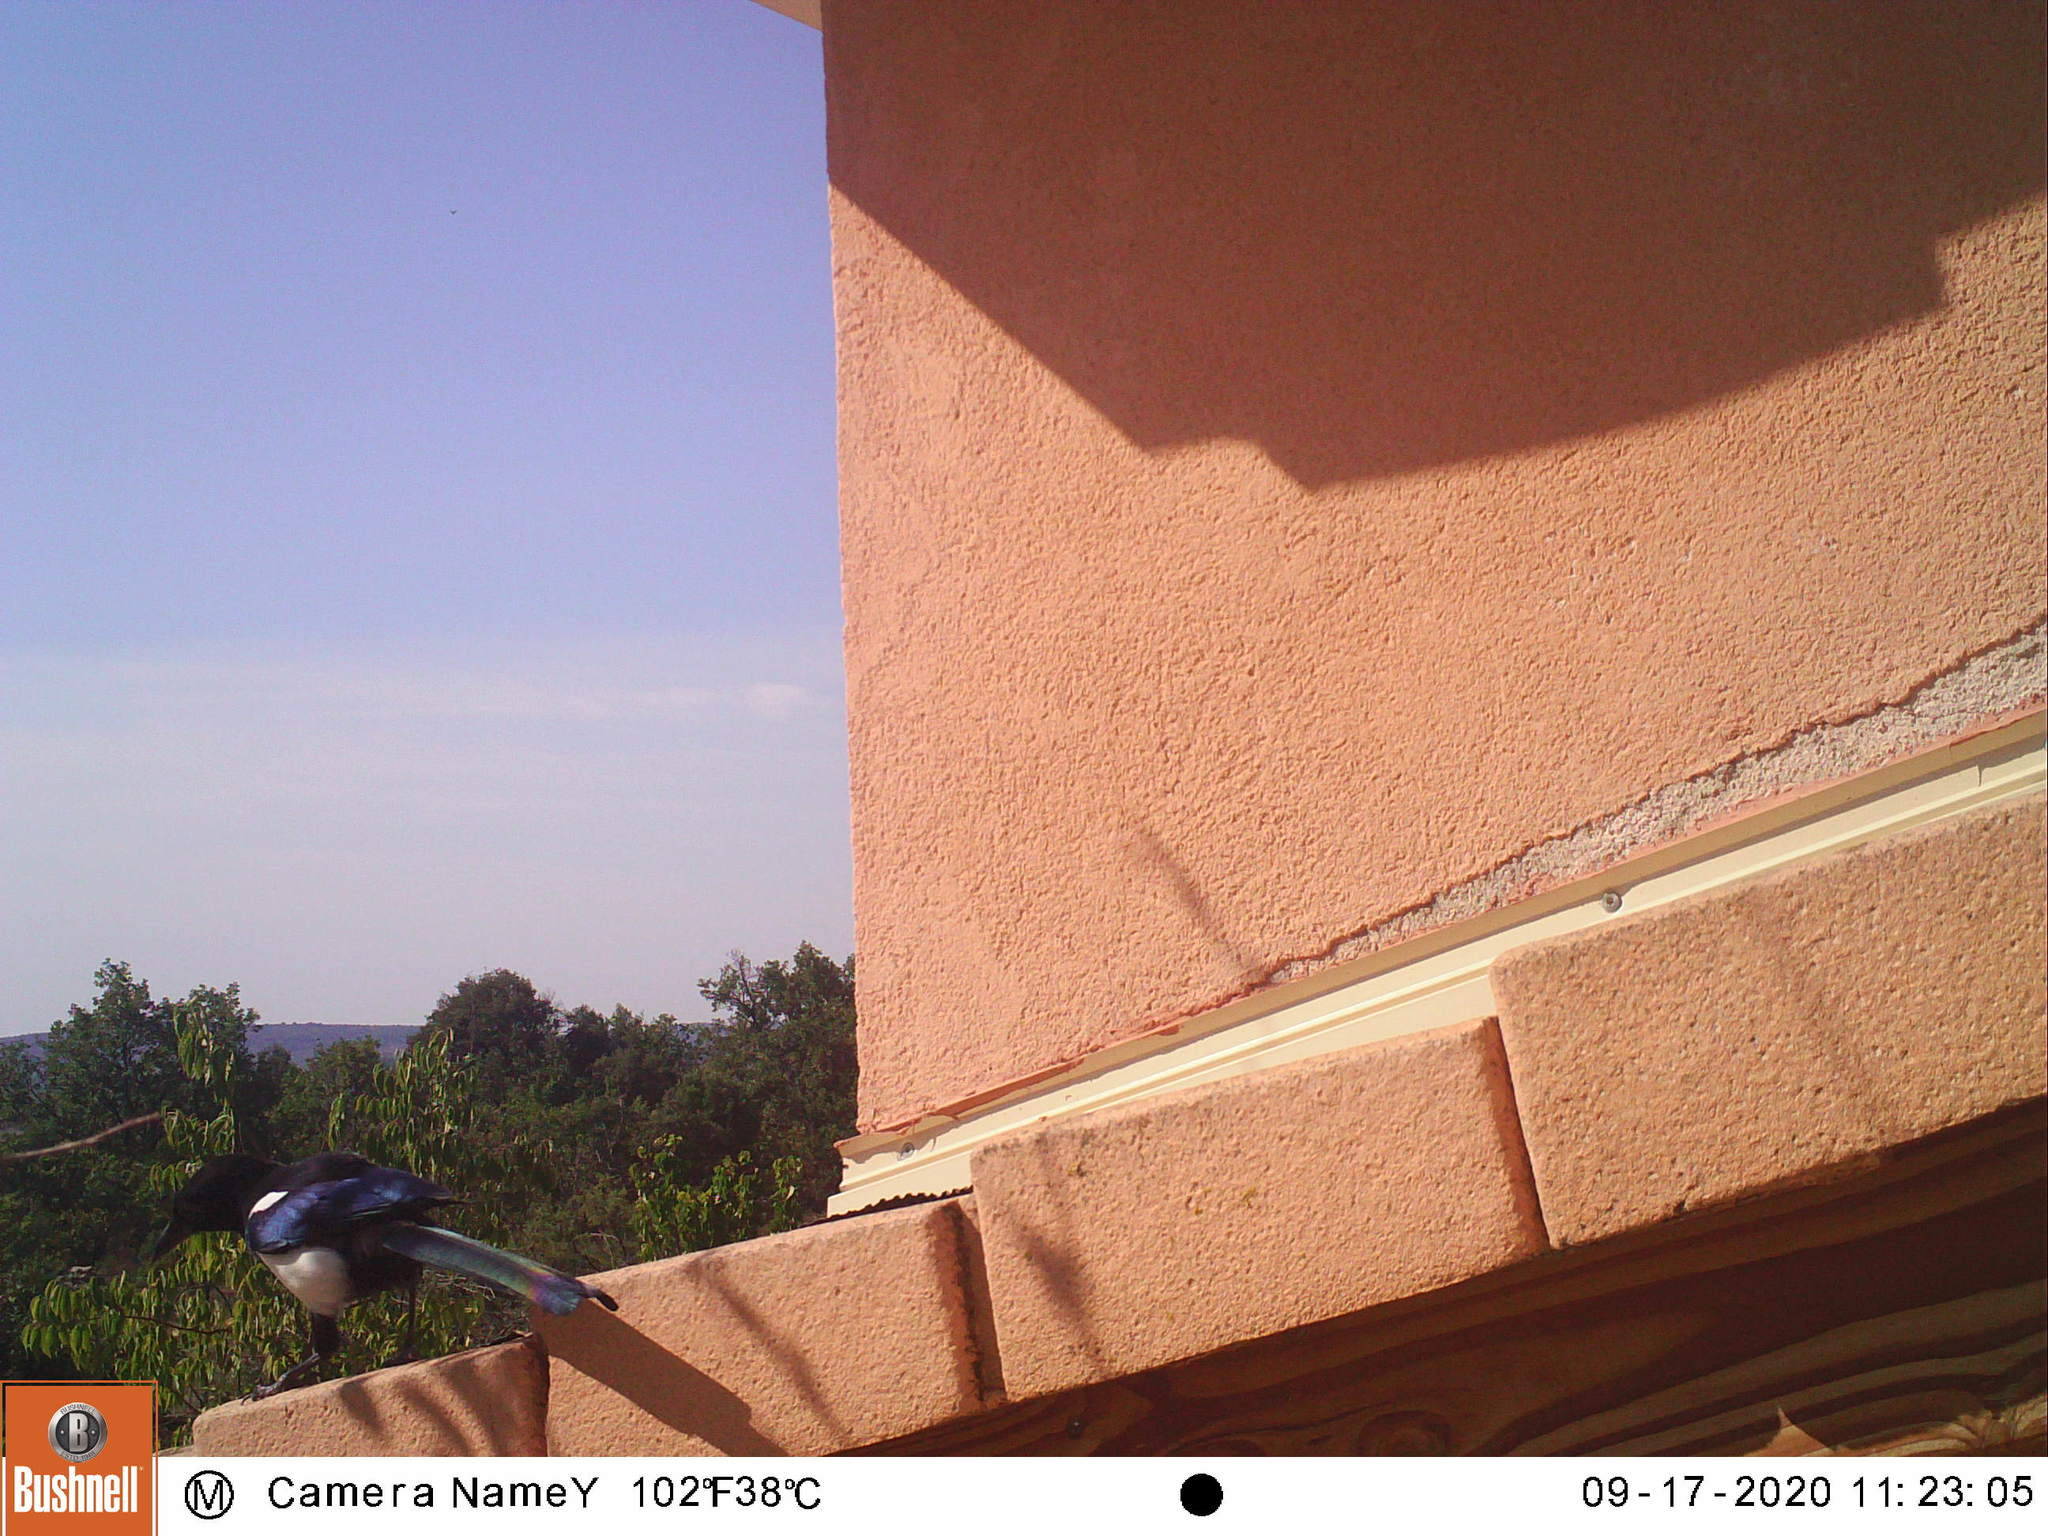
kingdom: Animalia
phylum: Chordata
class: Aves
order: Passeriformes
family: Corvidae
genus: Pica
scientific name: Pica pica
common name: Eurasian magpie
